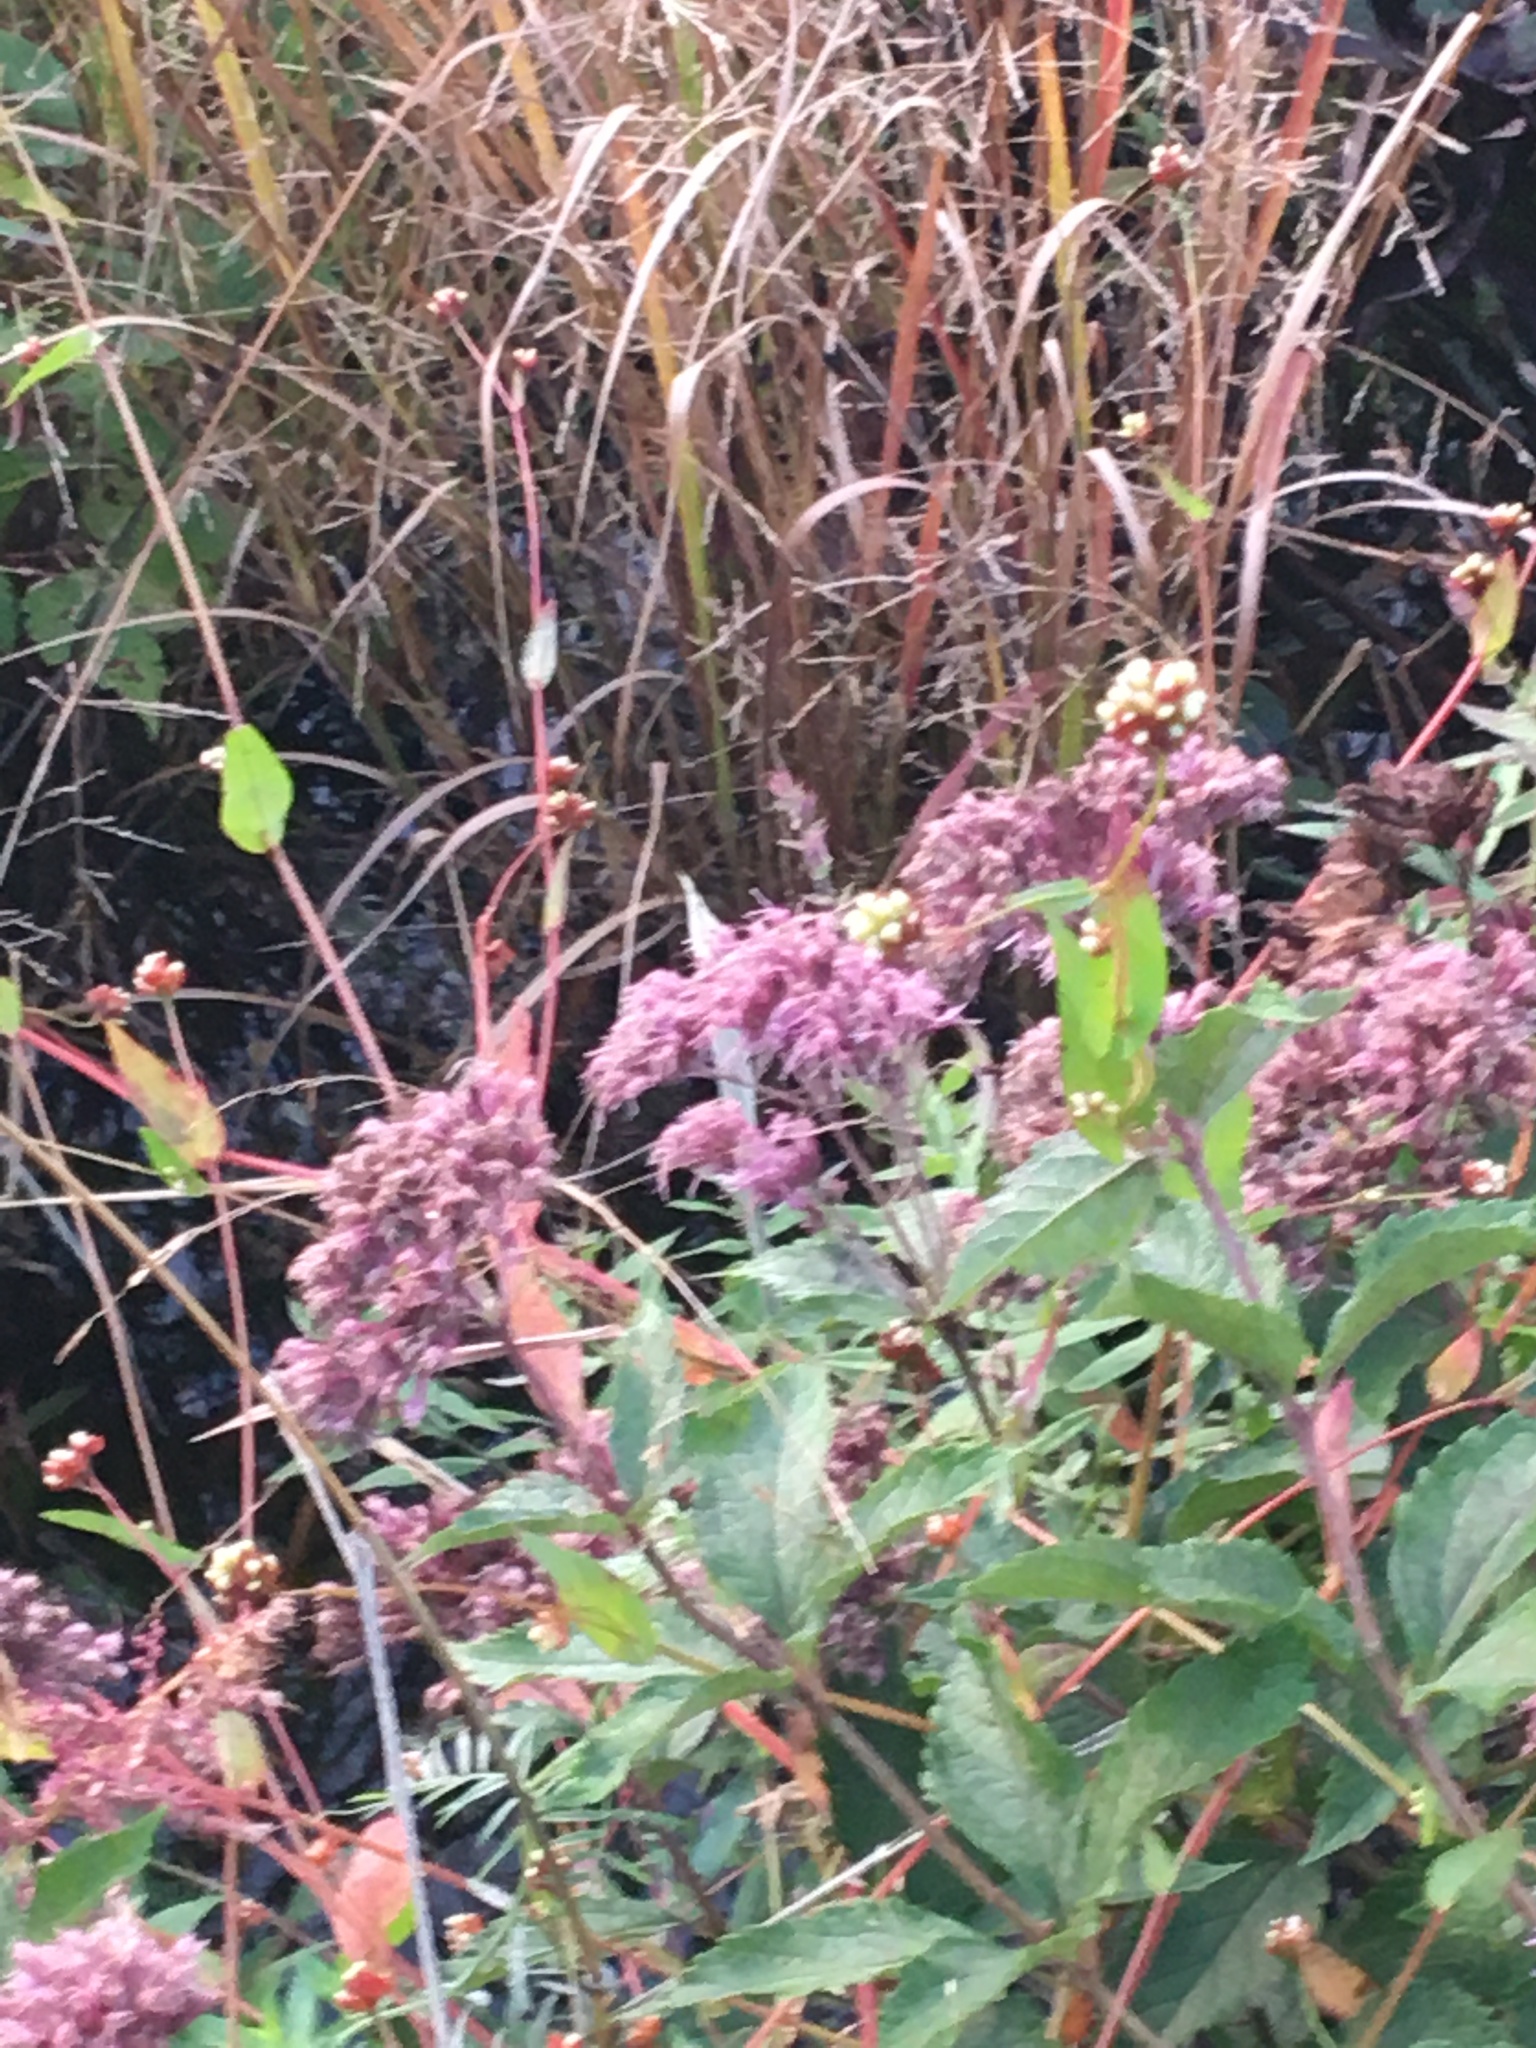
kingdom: Plantae
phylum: Tracheophyta
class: Magnoliopsida
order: Asterales
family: Asteraceae
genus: Eutrochium
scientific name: Eutrochium dubium
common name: Coastal plain joe pye weed
